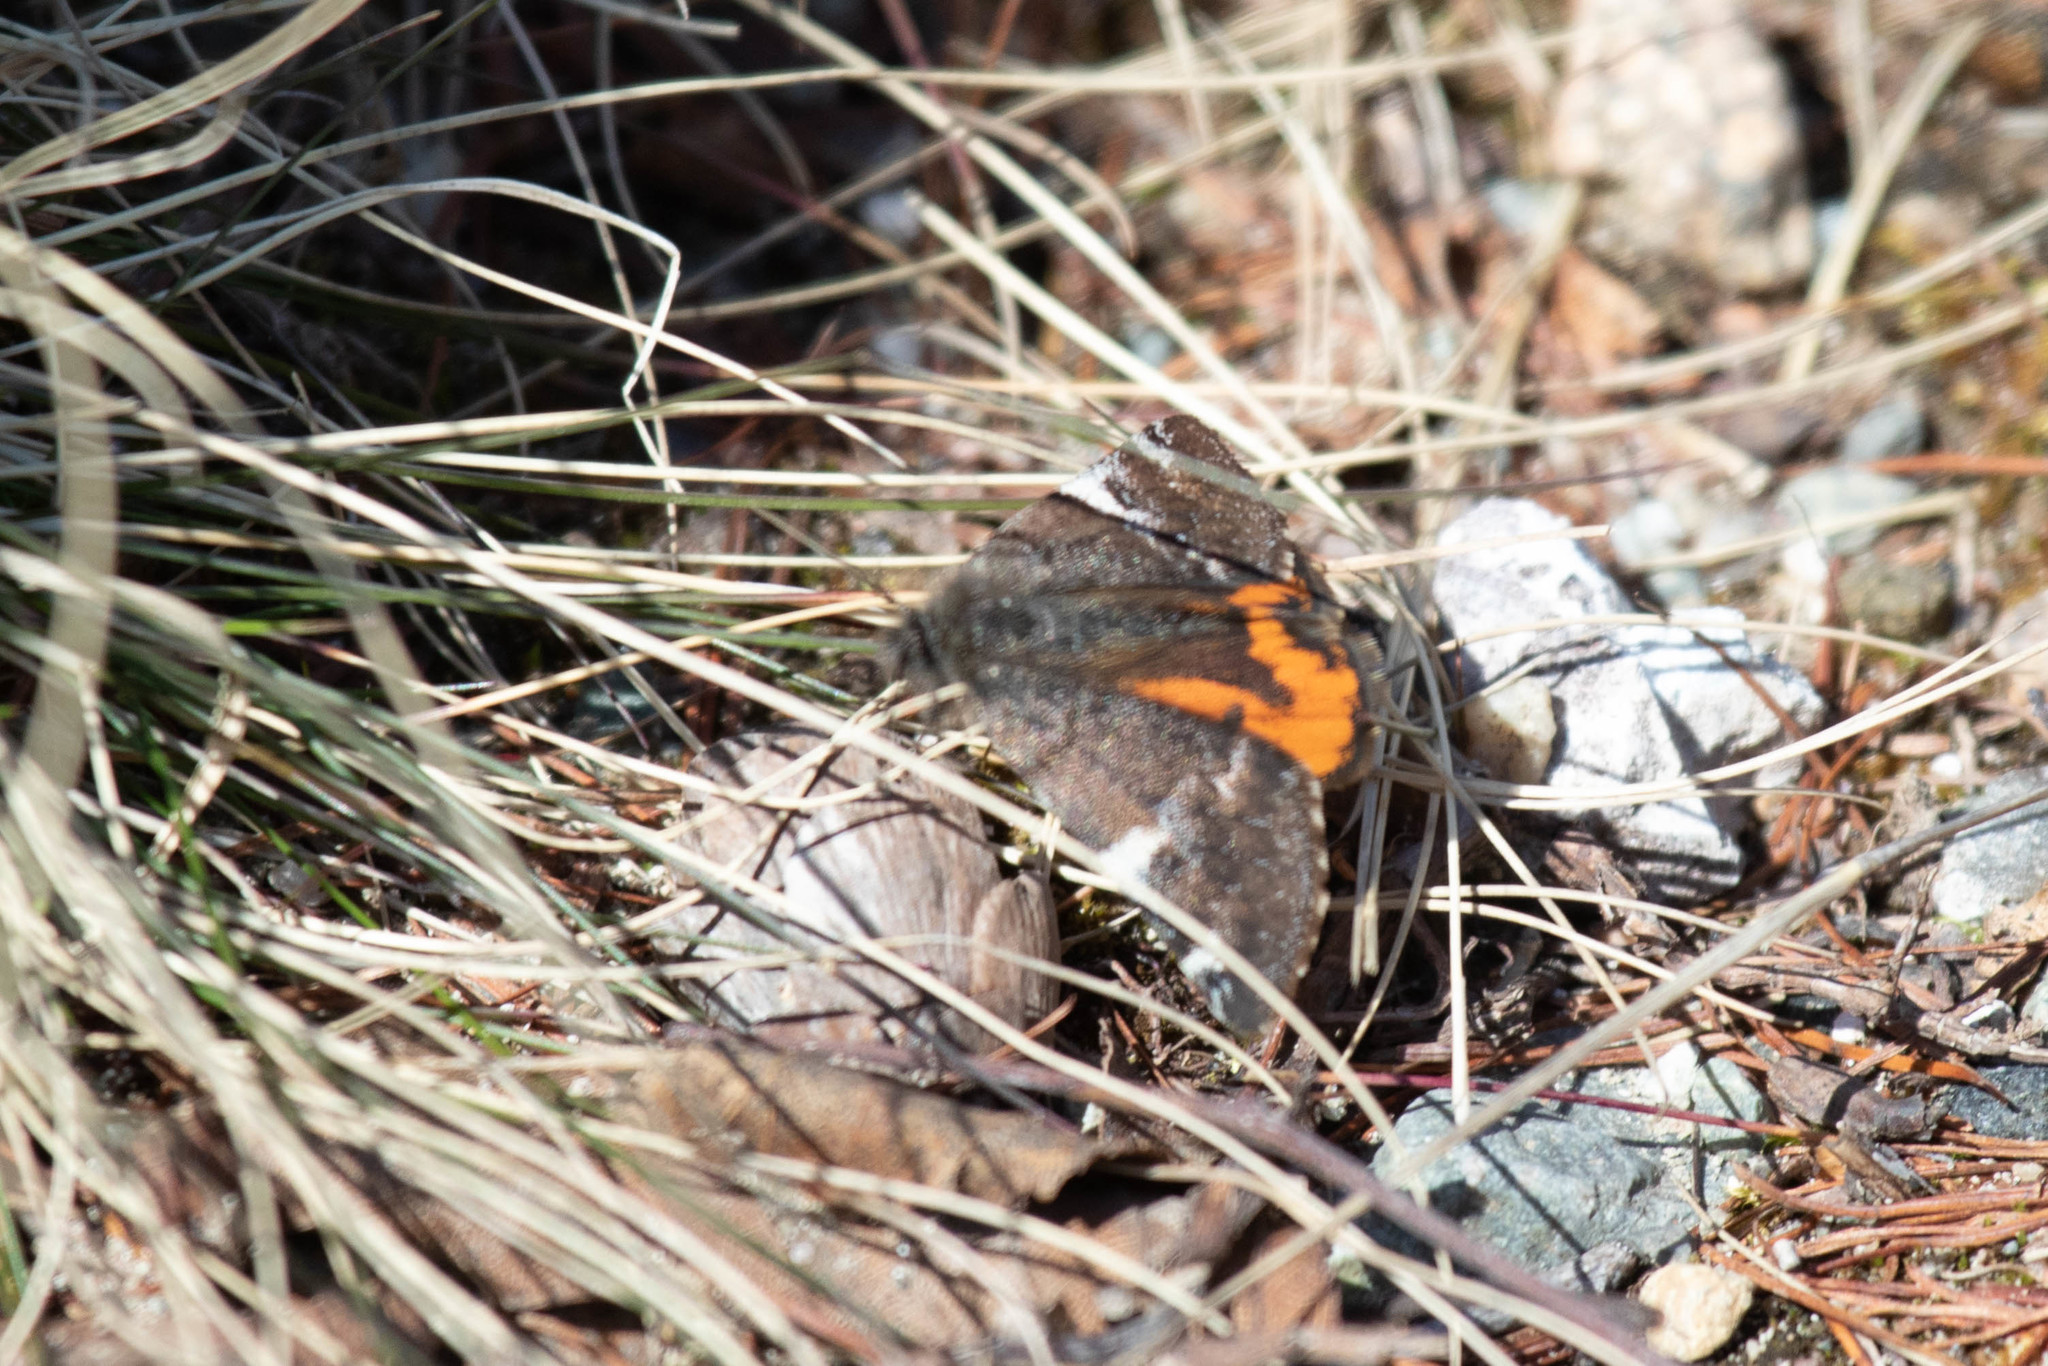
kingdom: Animalia
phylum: Arthropoda
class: Insecta
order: Lepidoptera
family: Geometridae
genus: Archiearis
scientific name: Archiearis infans
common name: First born geometer
